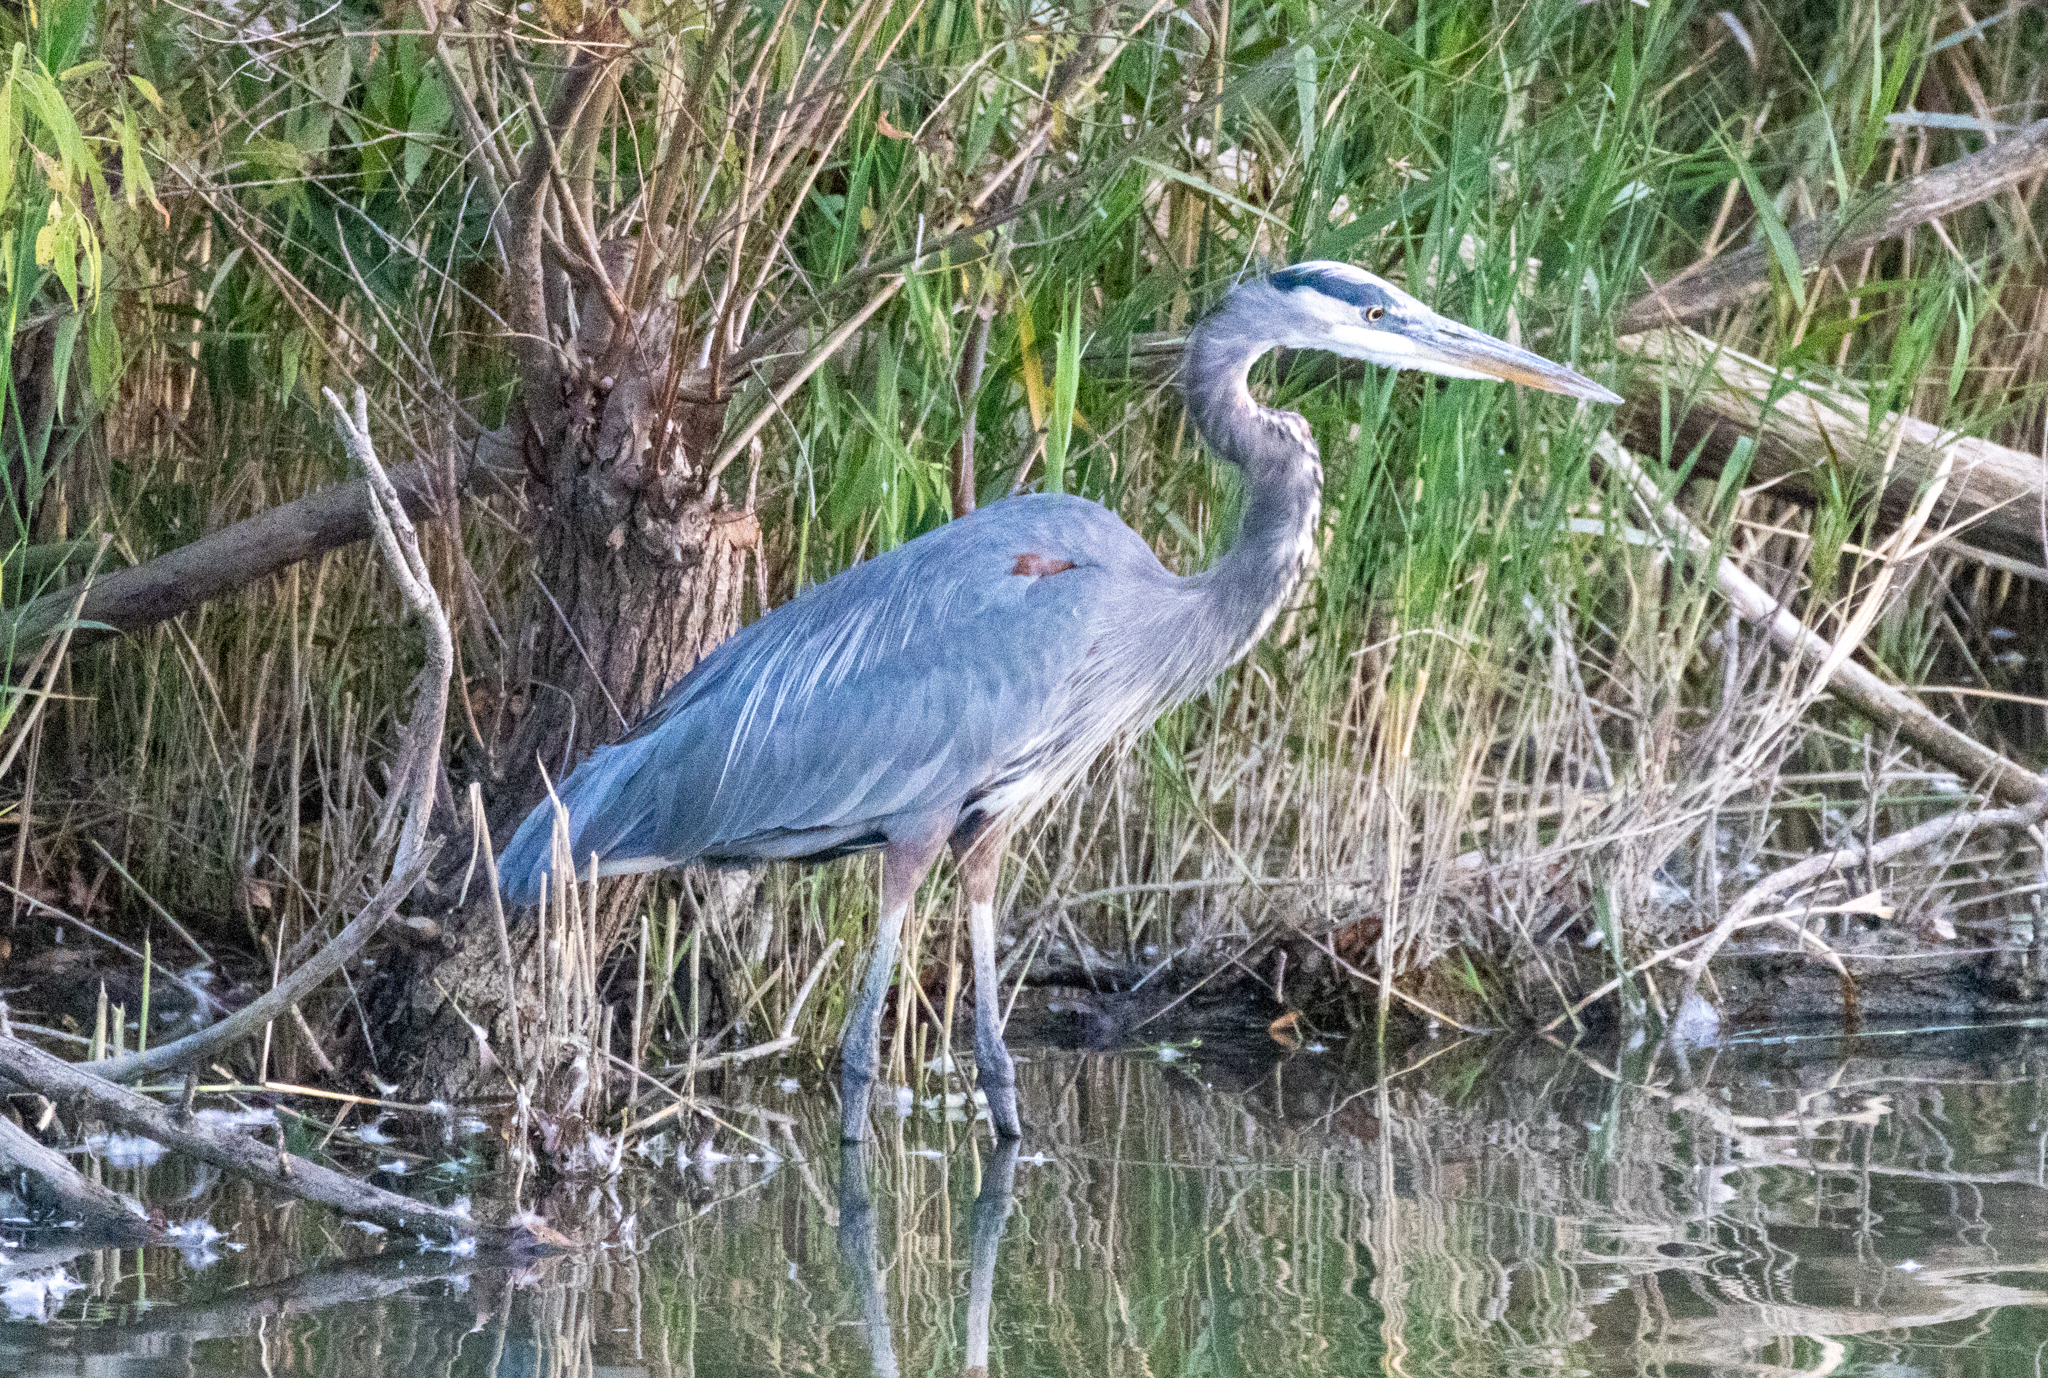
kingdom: Animalia
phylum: Chordata
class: Aves
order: Pelecaniformes
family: Ardeidae
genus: Ardea
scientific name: Ardea herodias
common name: Great blue heron
